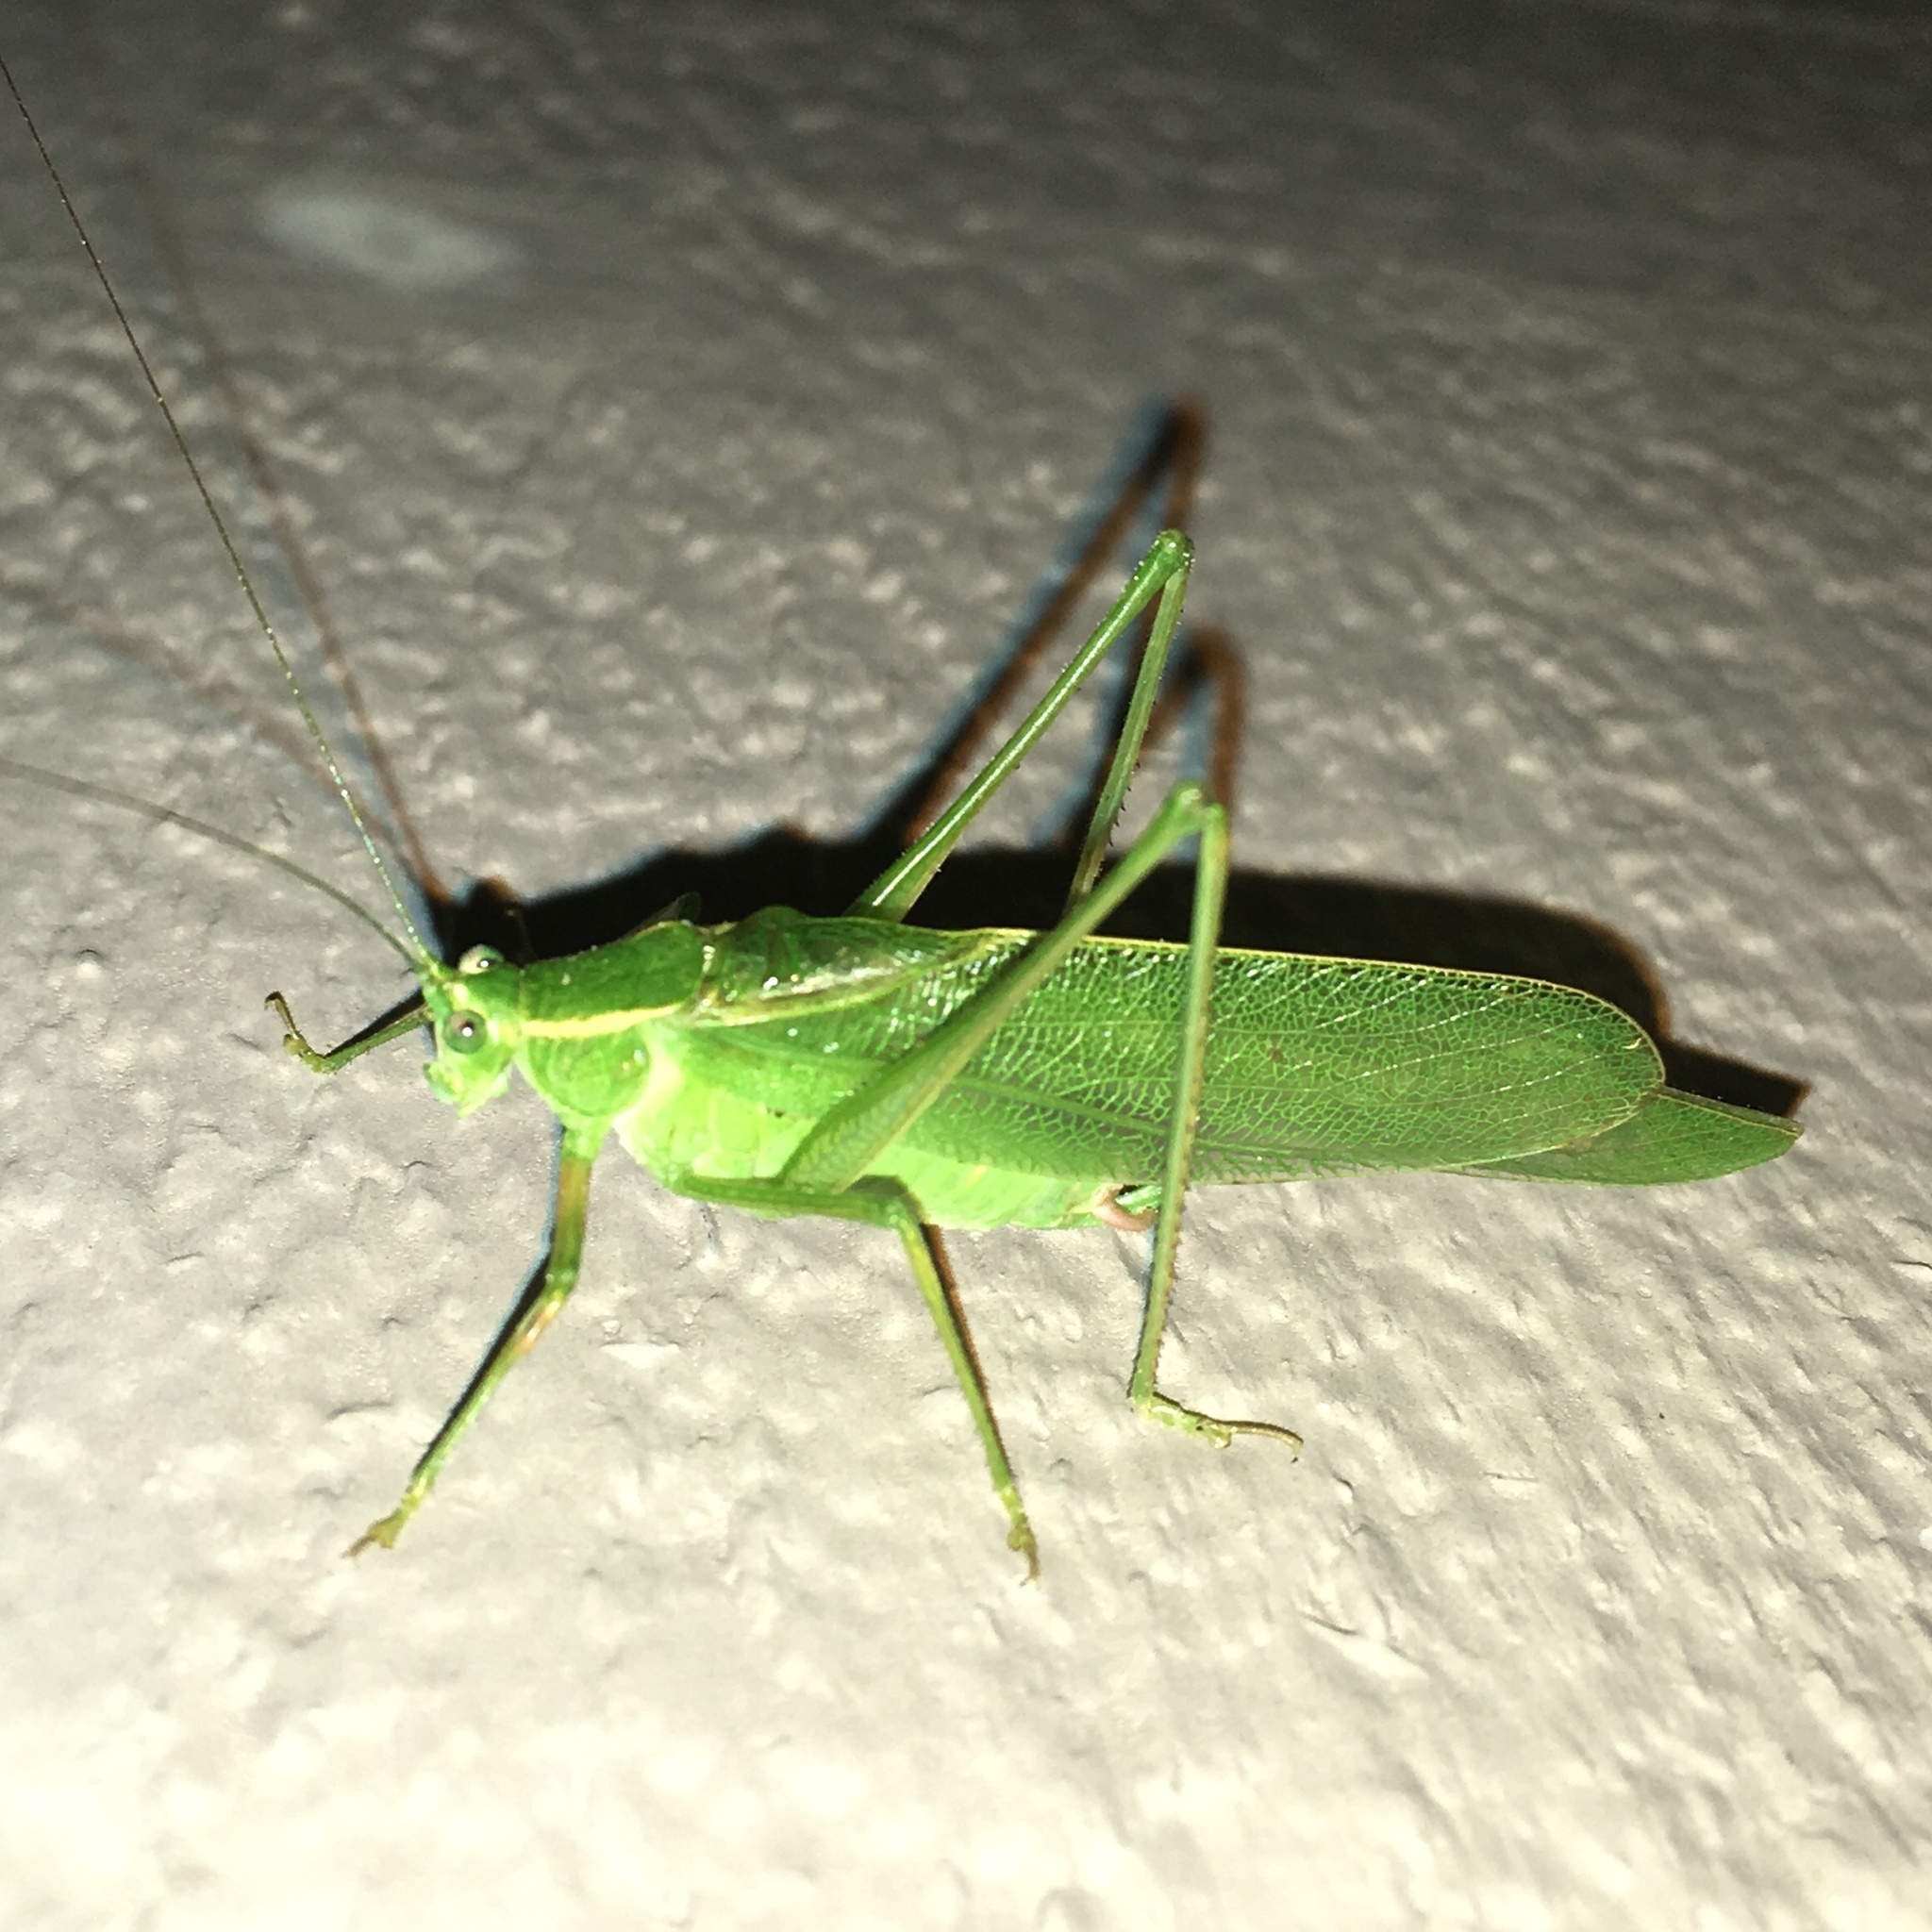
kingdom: Animalia
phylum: Arthropoda
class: Insecta
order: Orthoptera
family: Tettigoniidae
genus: Scudderia
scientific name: Scudderia septentrionalis
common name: Northern bush-katydid
